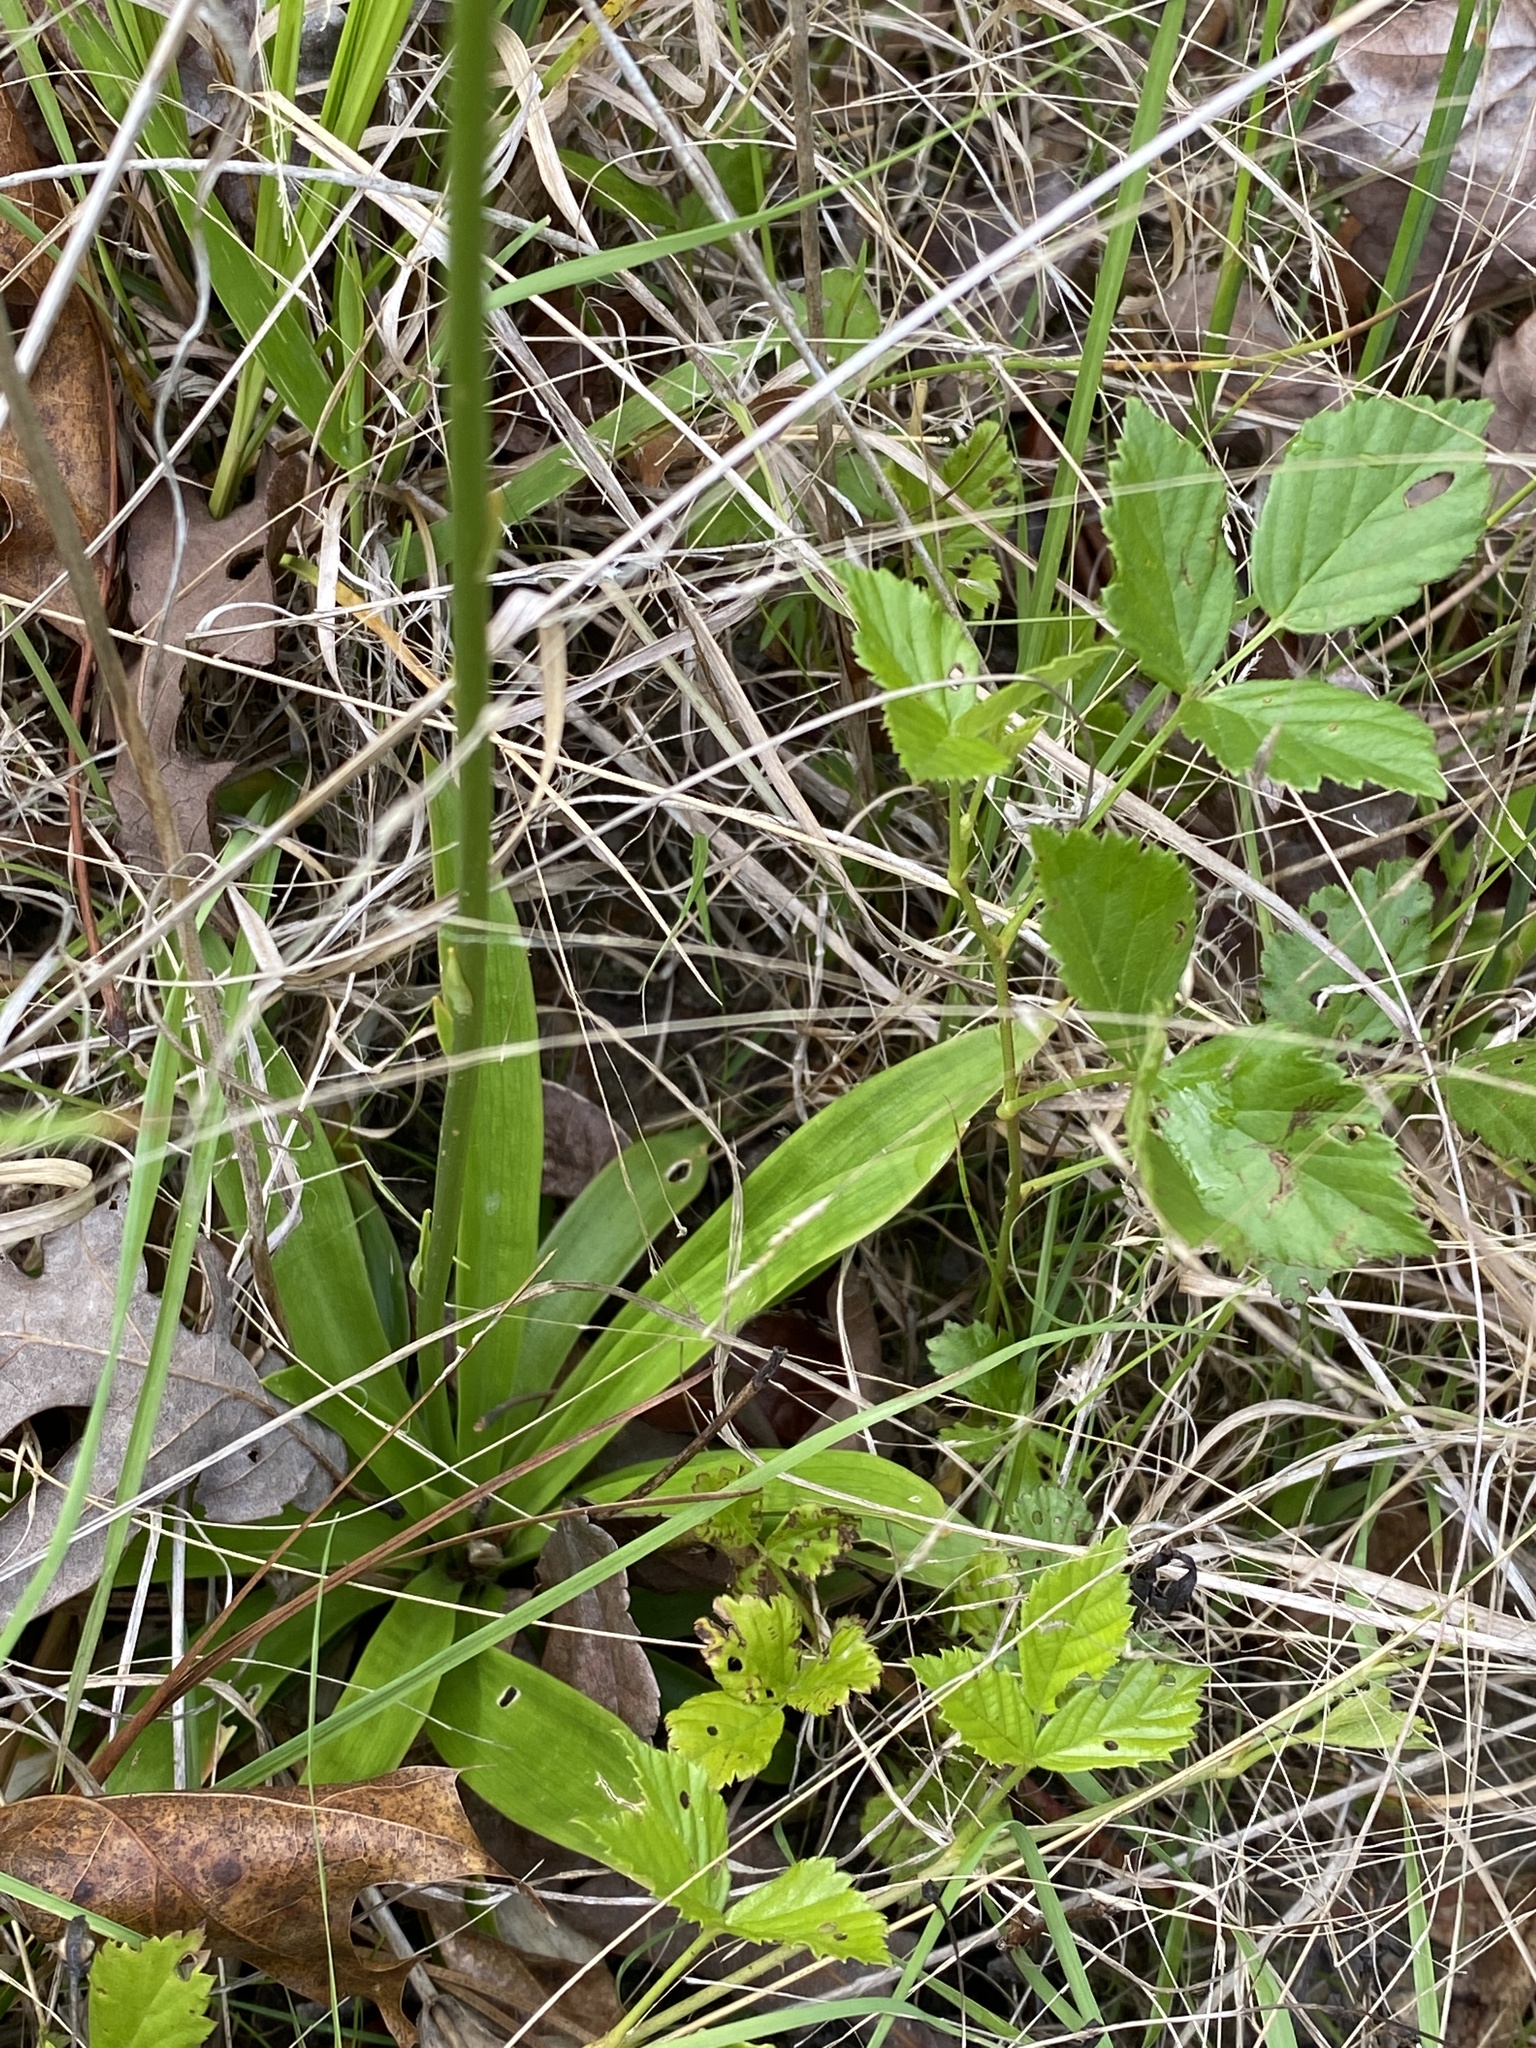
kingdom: Plantae
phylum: Tracheophyta
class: Liliopsida
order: Dioscoreales
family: Nartheciaceae
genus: Aletris
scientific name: Aletris farinosa
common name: Colicroot
